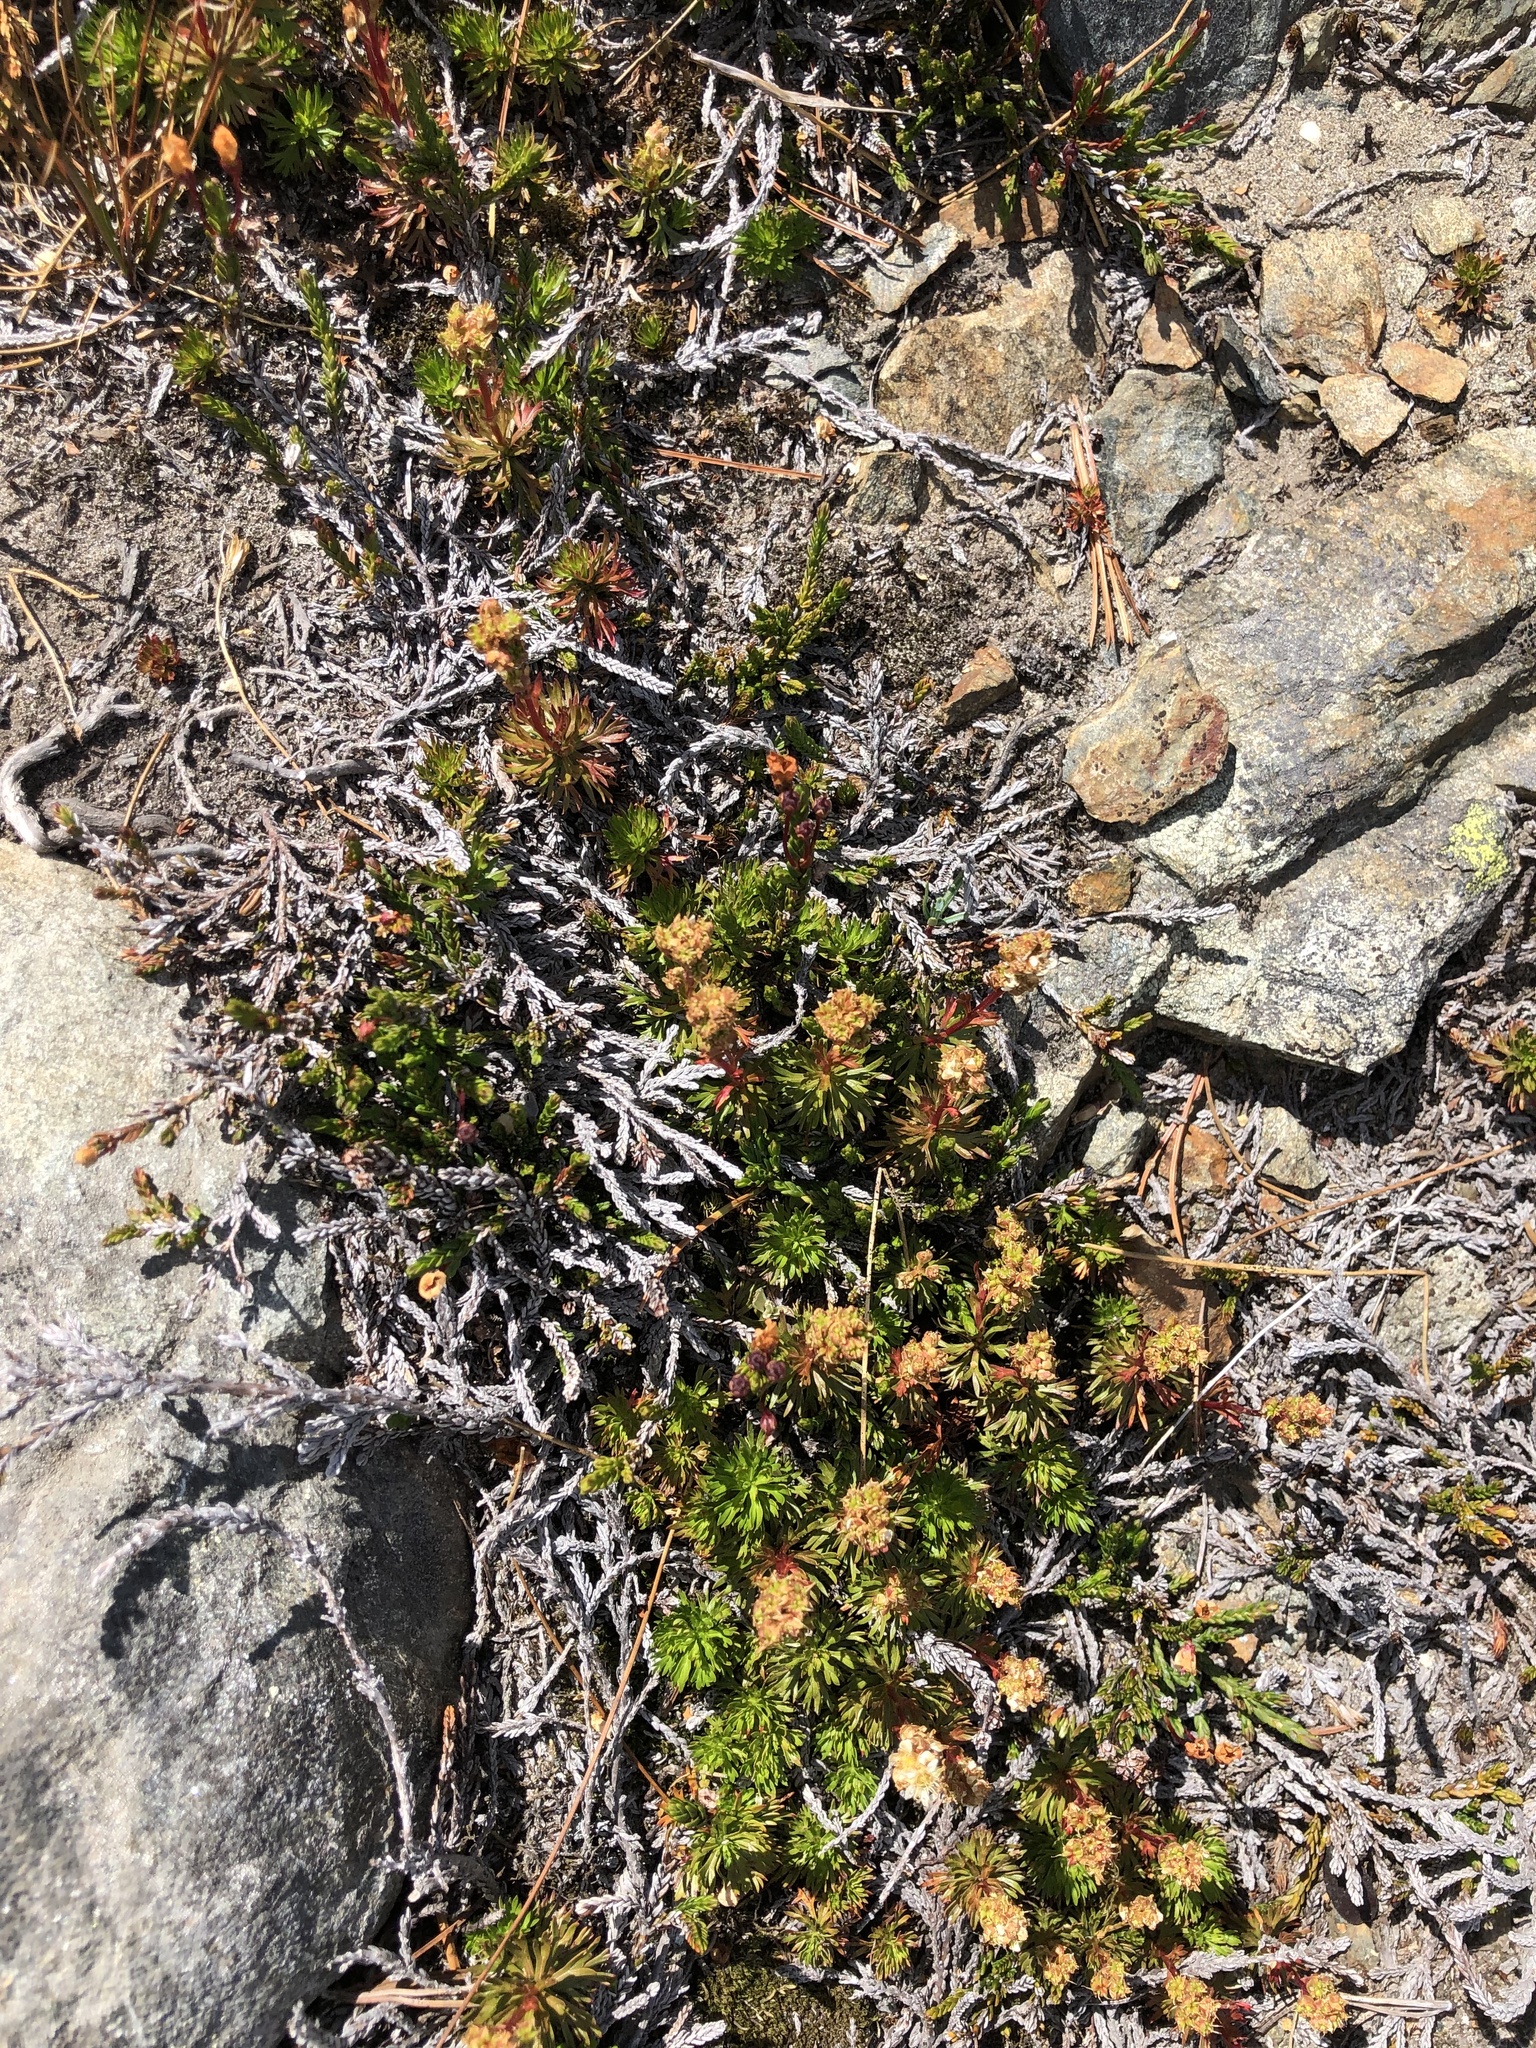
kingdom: Plantae
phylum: Tracheophyta
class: Magnoliopsida
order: Rosales
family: Rosaceae
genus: Luetkea
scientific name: Luetkea pectinata
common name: Partridgefoot
